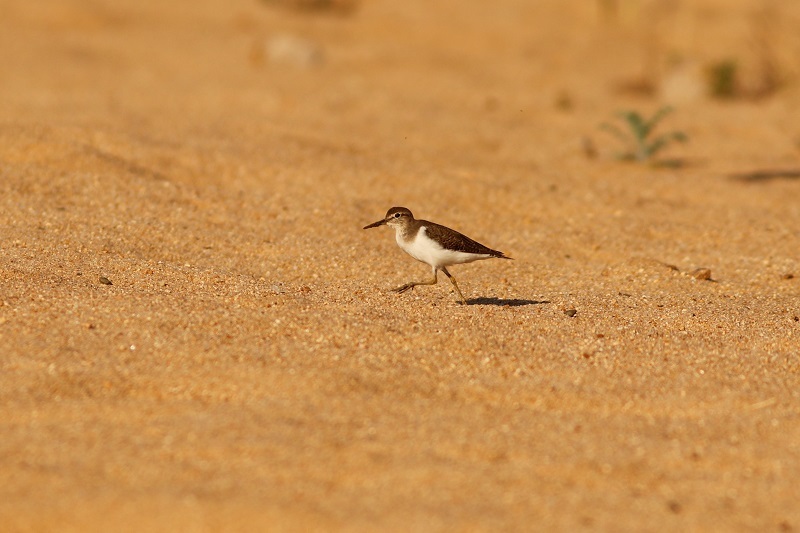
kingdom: Animalia
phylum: Chordata
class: Aves
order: Charadriiformes
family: Scolopacidae
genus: Actitis
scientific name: Actitis hypoleucos
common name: Common sandpiper
